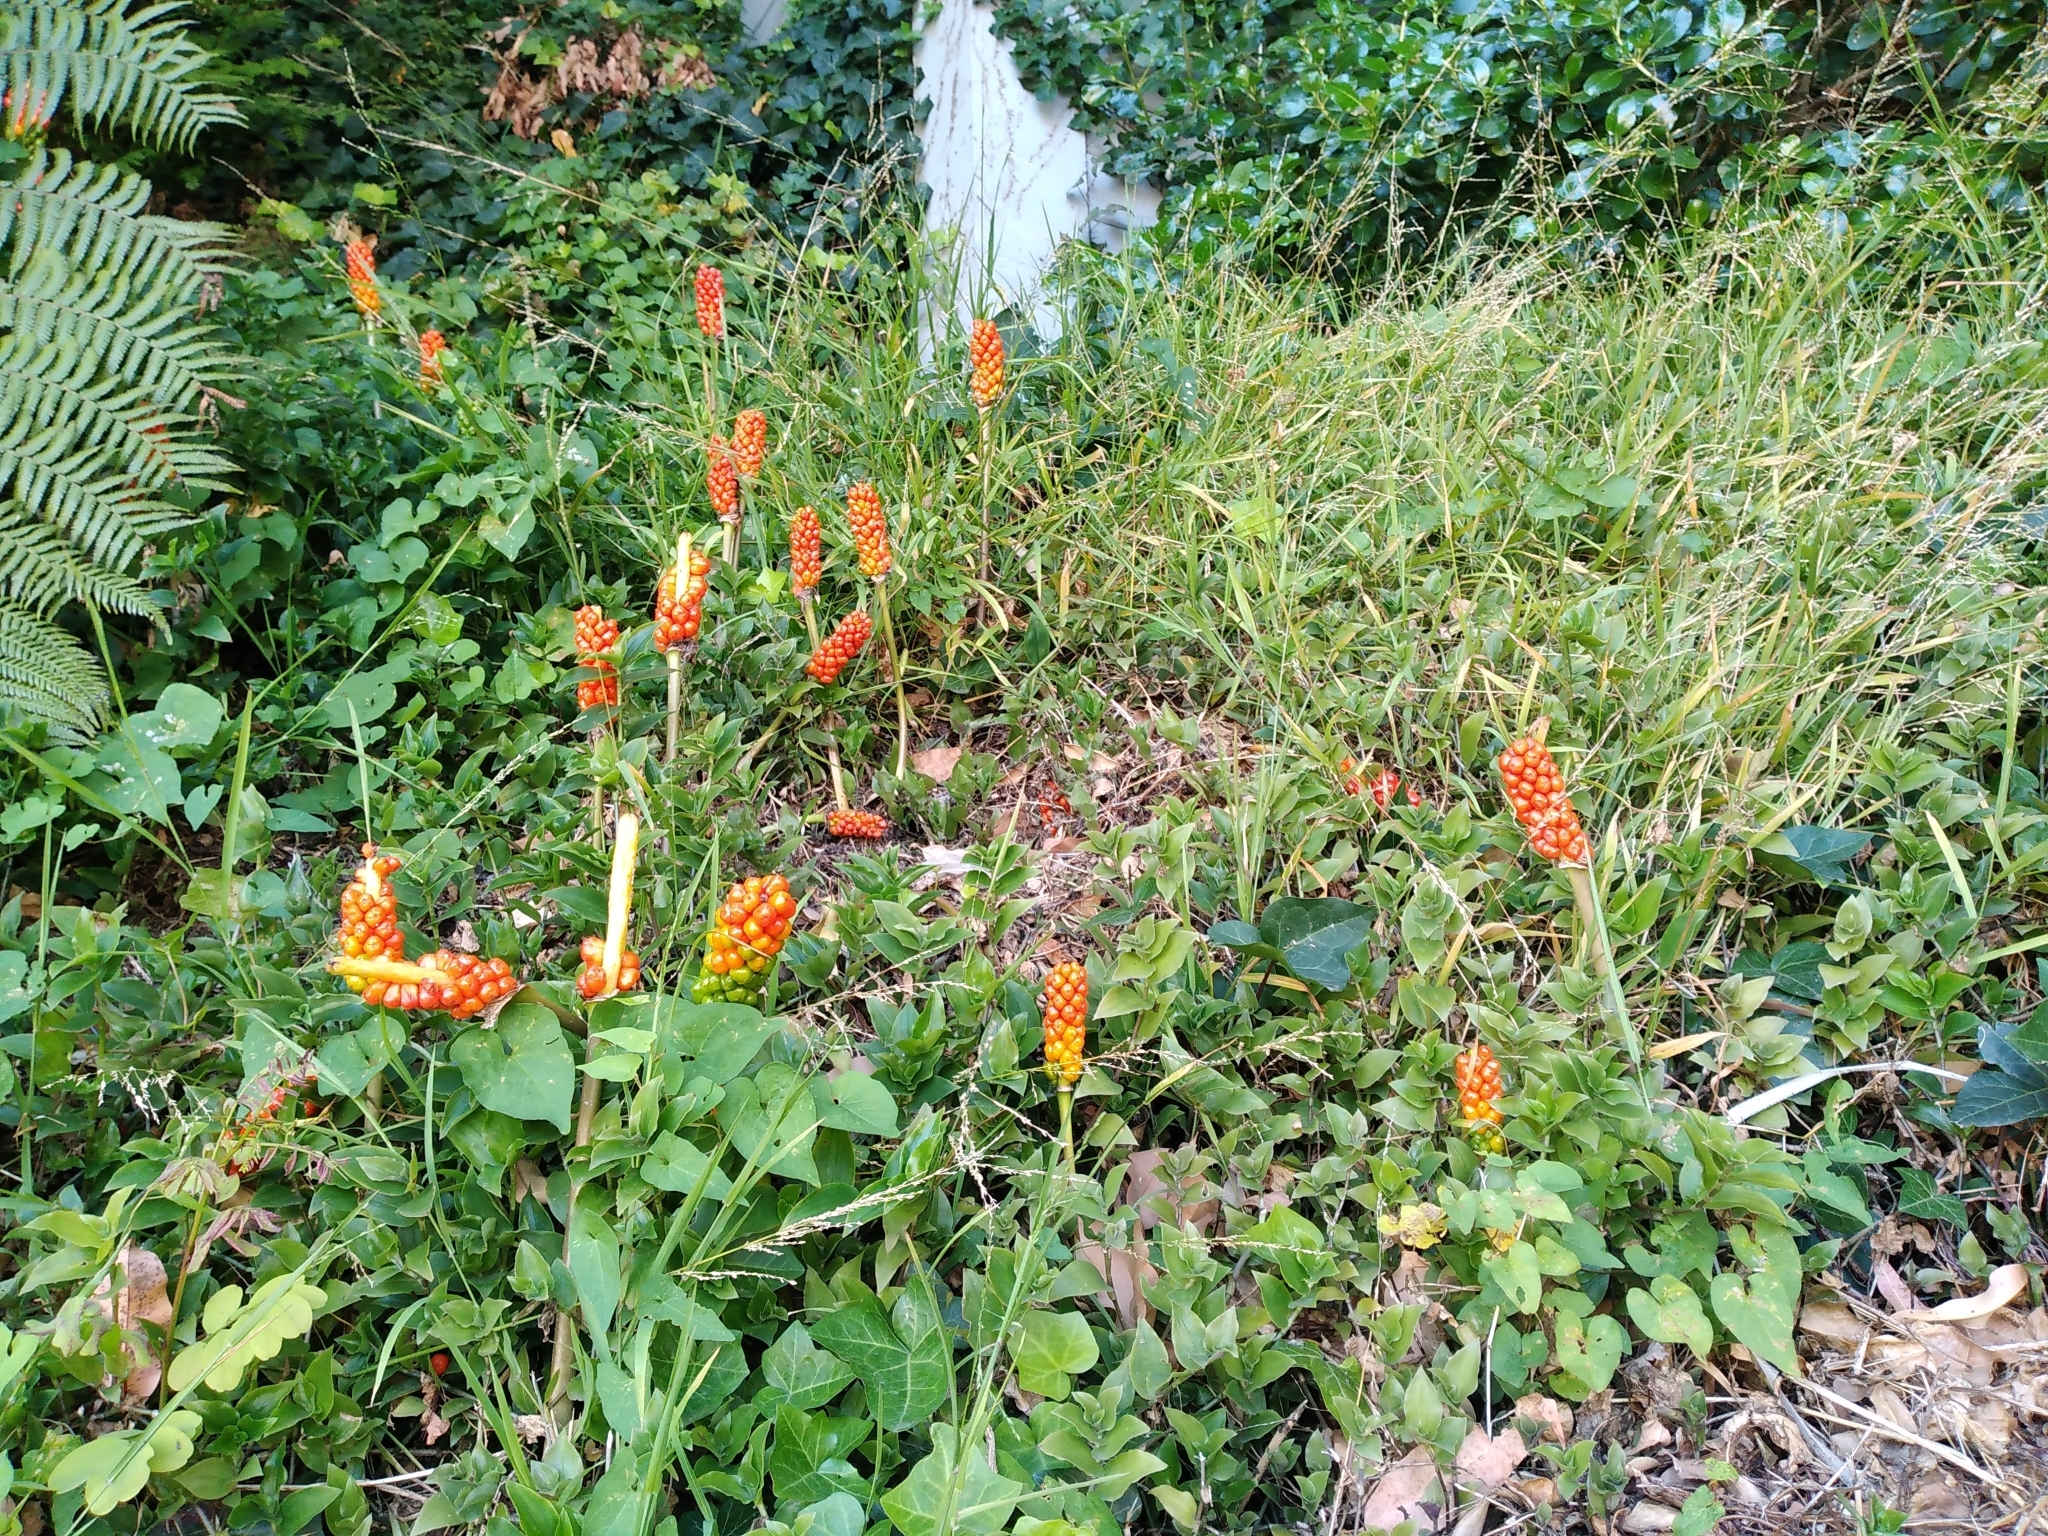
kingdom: Plantae
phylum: Tracheophyta
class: Liliopsida
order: Alismatales
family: Araceae
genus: Arum
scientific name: Arum italicum
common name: Italian lords-and-ladies
